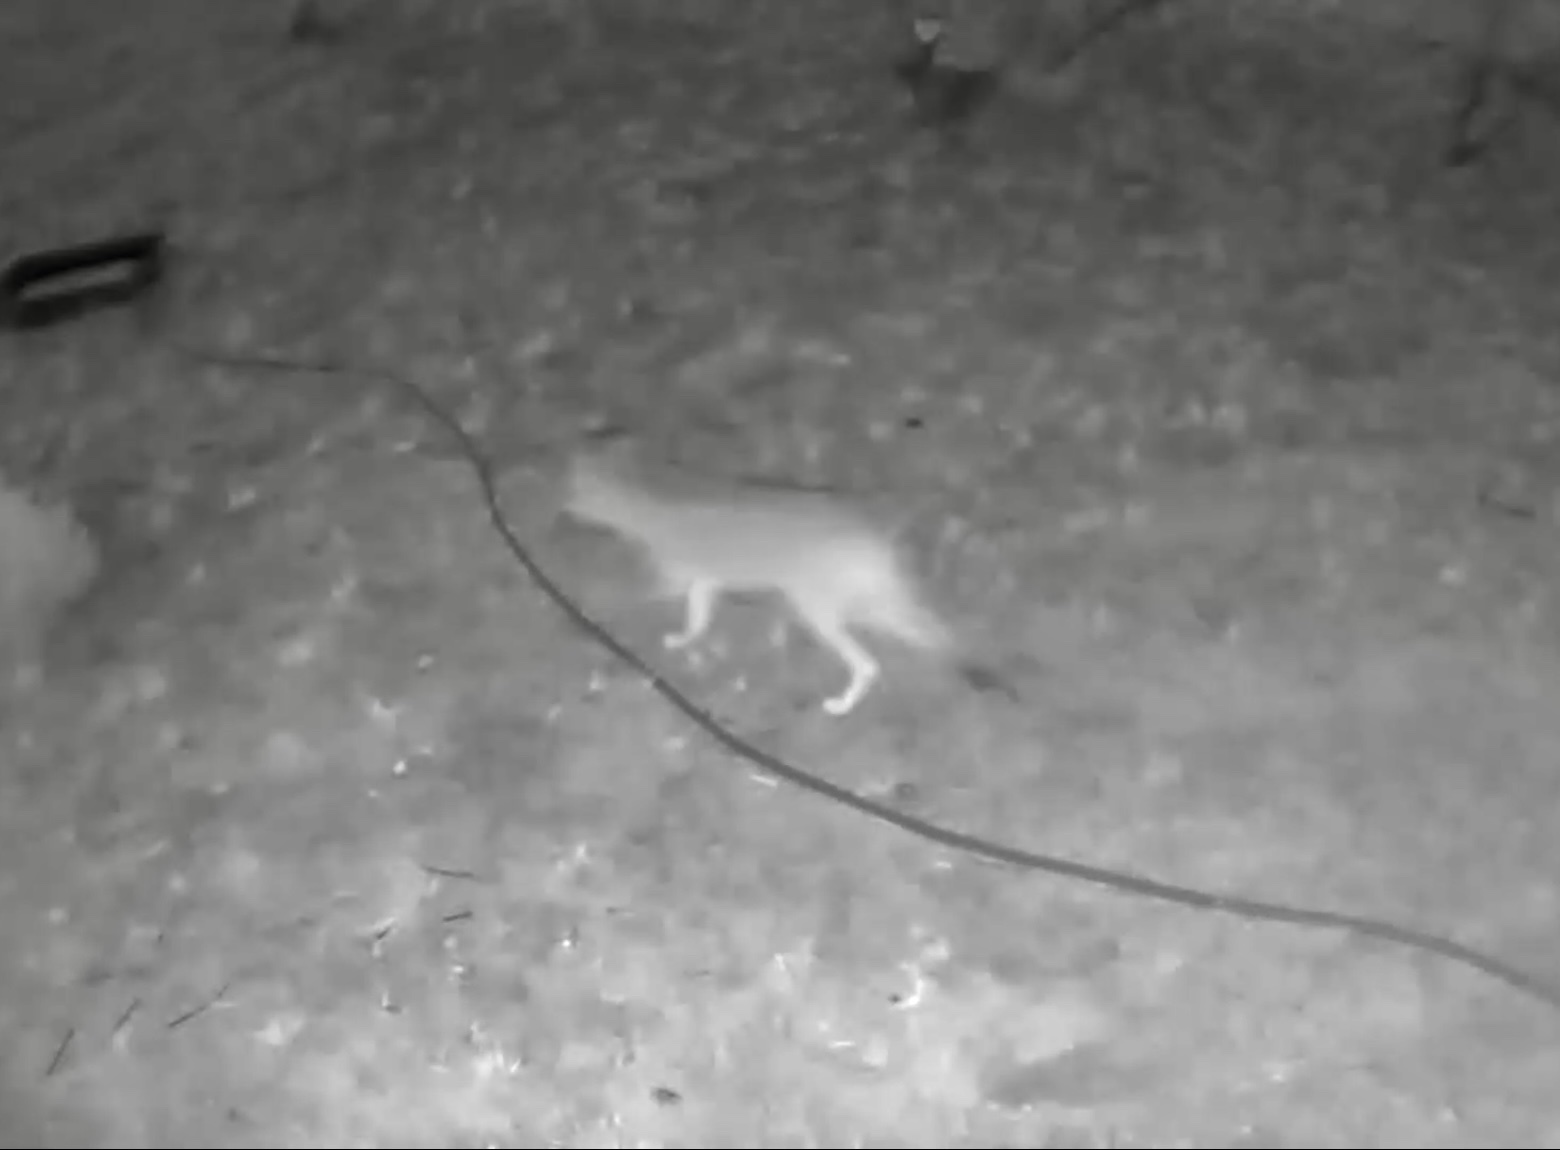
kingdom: Animalia
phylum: Chordata
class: Mammalia
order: Carnivora
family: Canidae
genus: Canis
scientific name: Canis latrans
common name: Coyote
